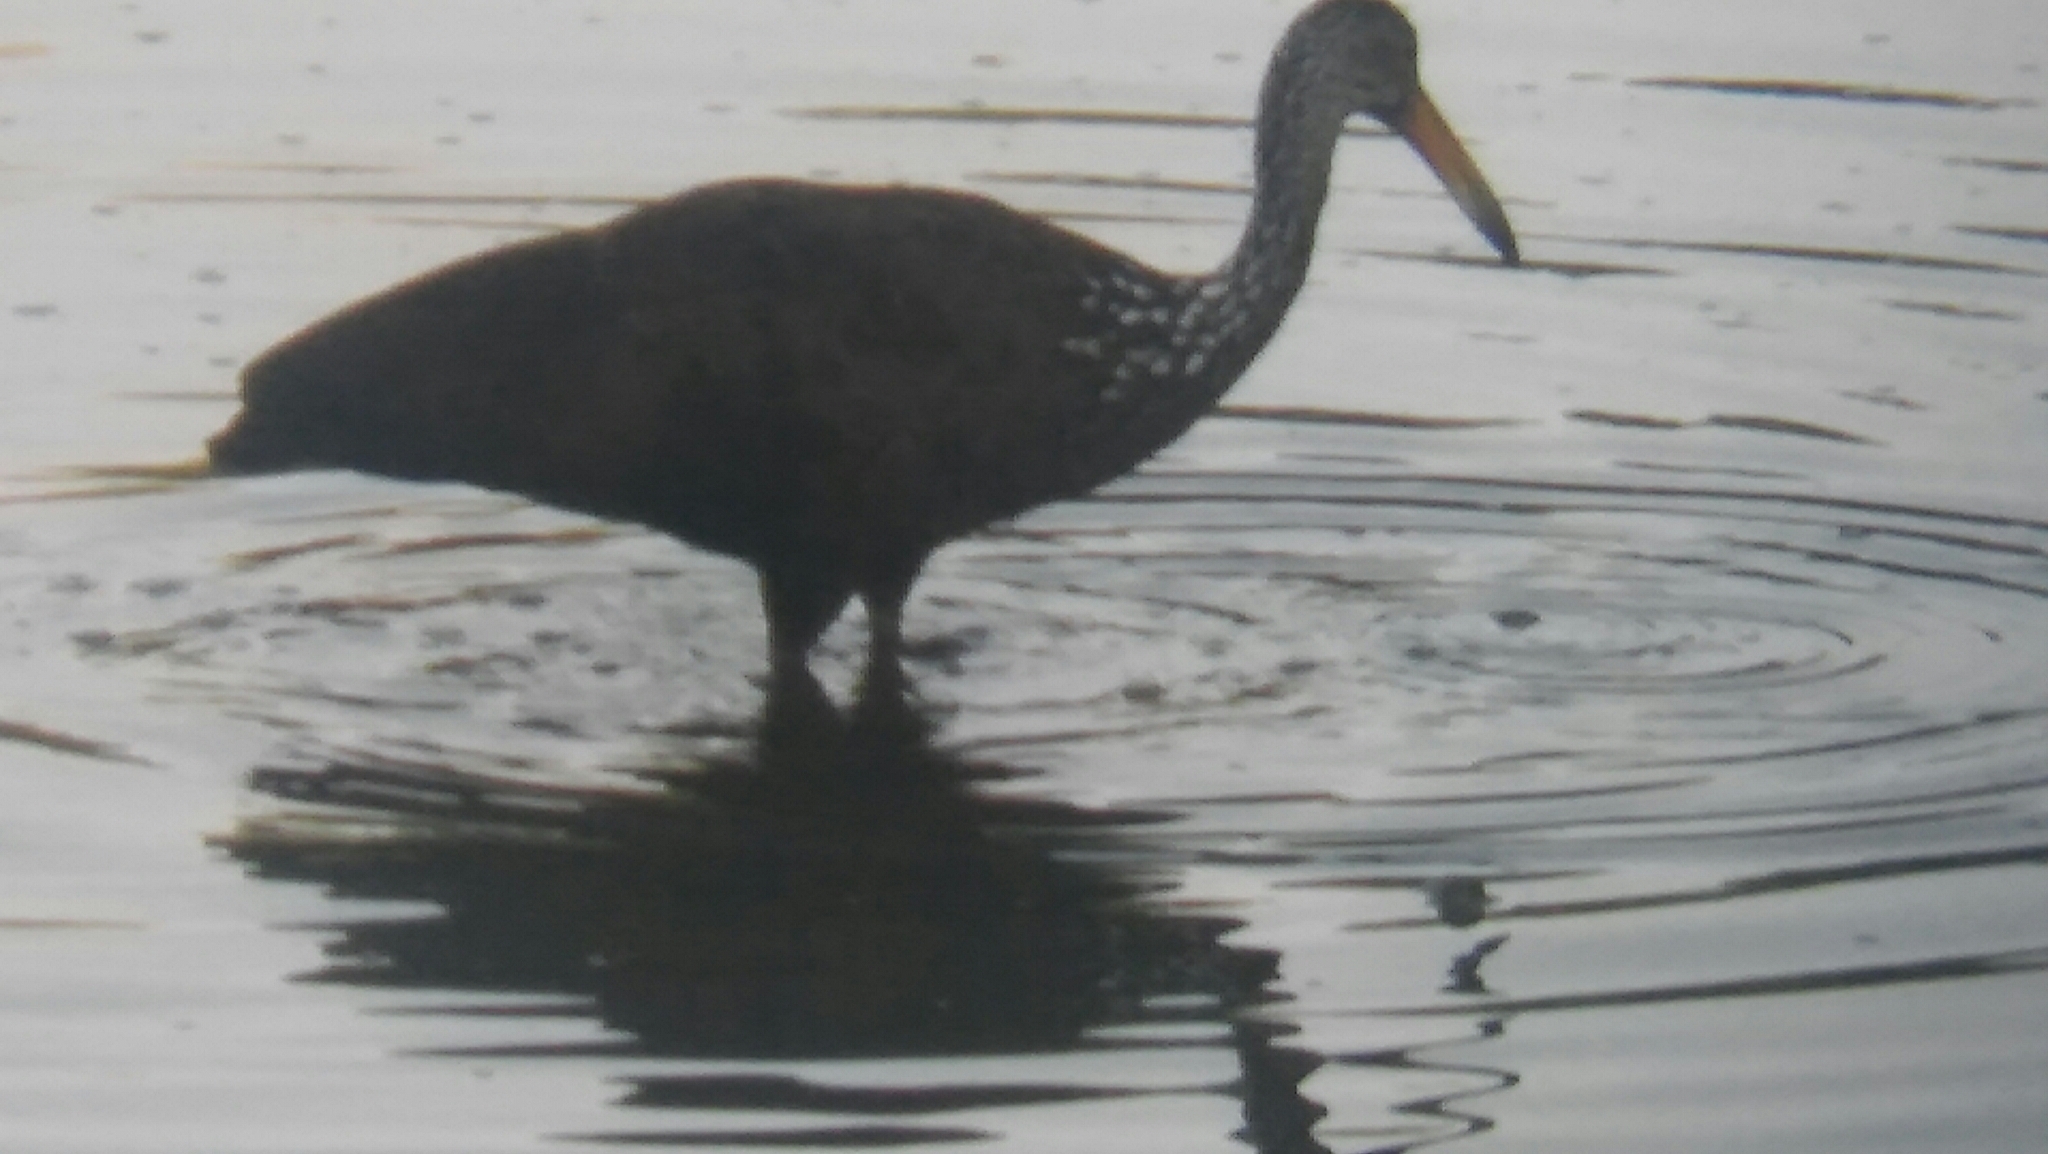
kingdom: Animalia
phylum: Chordata
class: Aves
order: Gruiformes
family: Aramidae
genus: Aramus
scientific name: Aramus guarauna
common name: Limpkin
